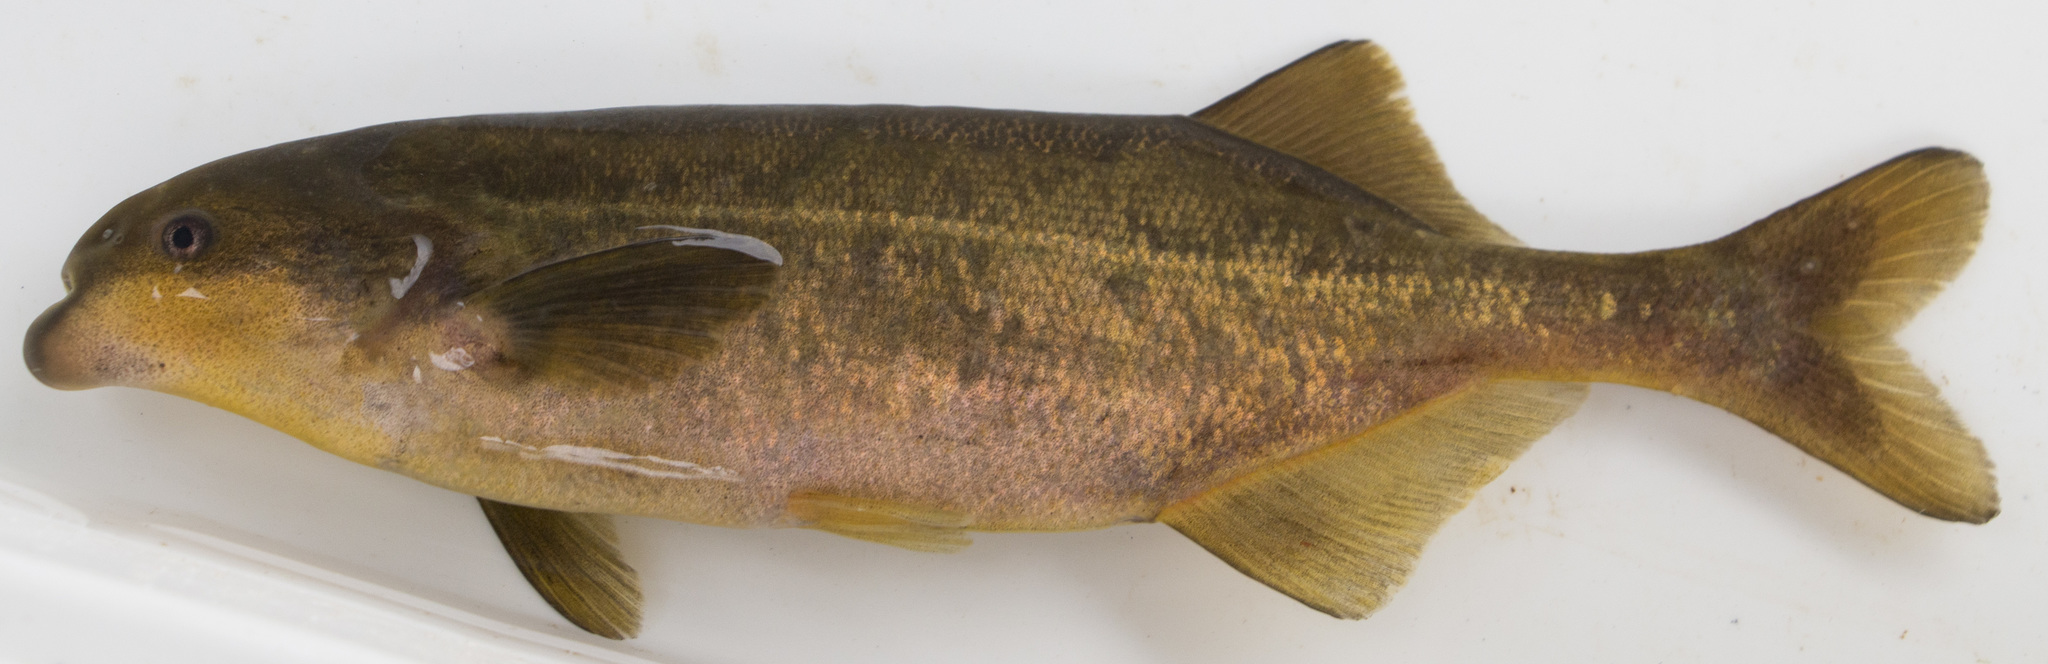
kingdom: Animalia
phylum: Chordata
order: Osteoglossiformes
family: Mormyridae
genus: Marcusenius
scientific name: Marcusenius pongolensis
